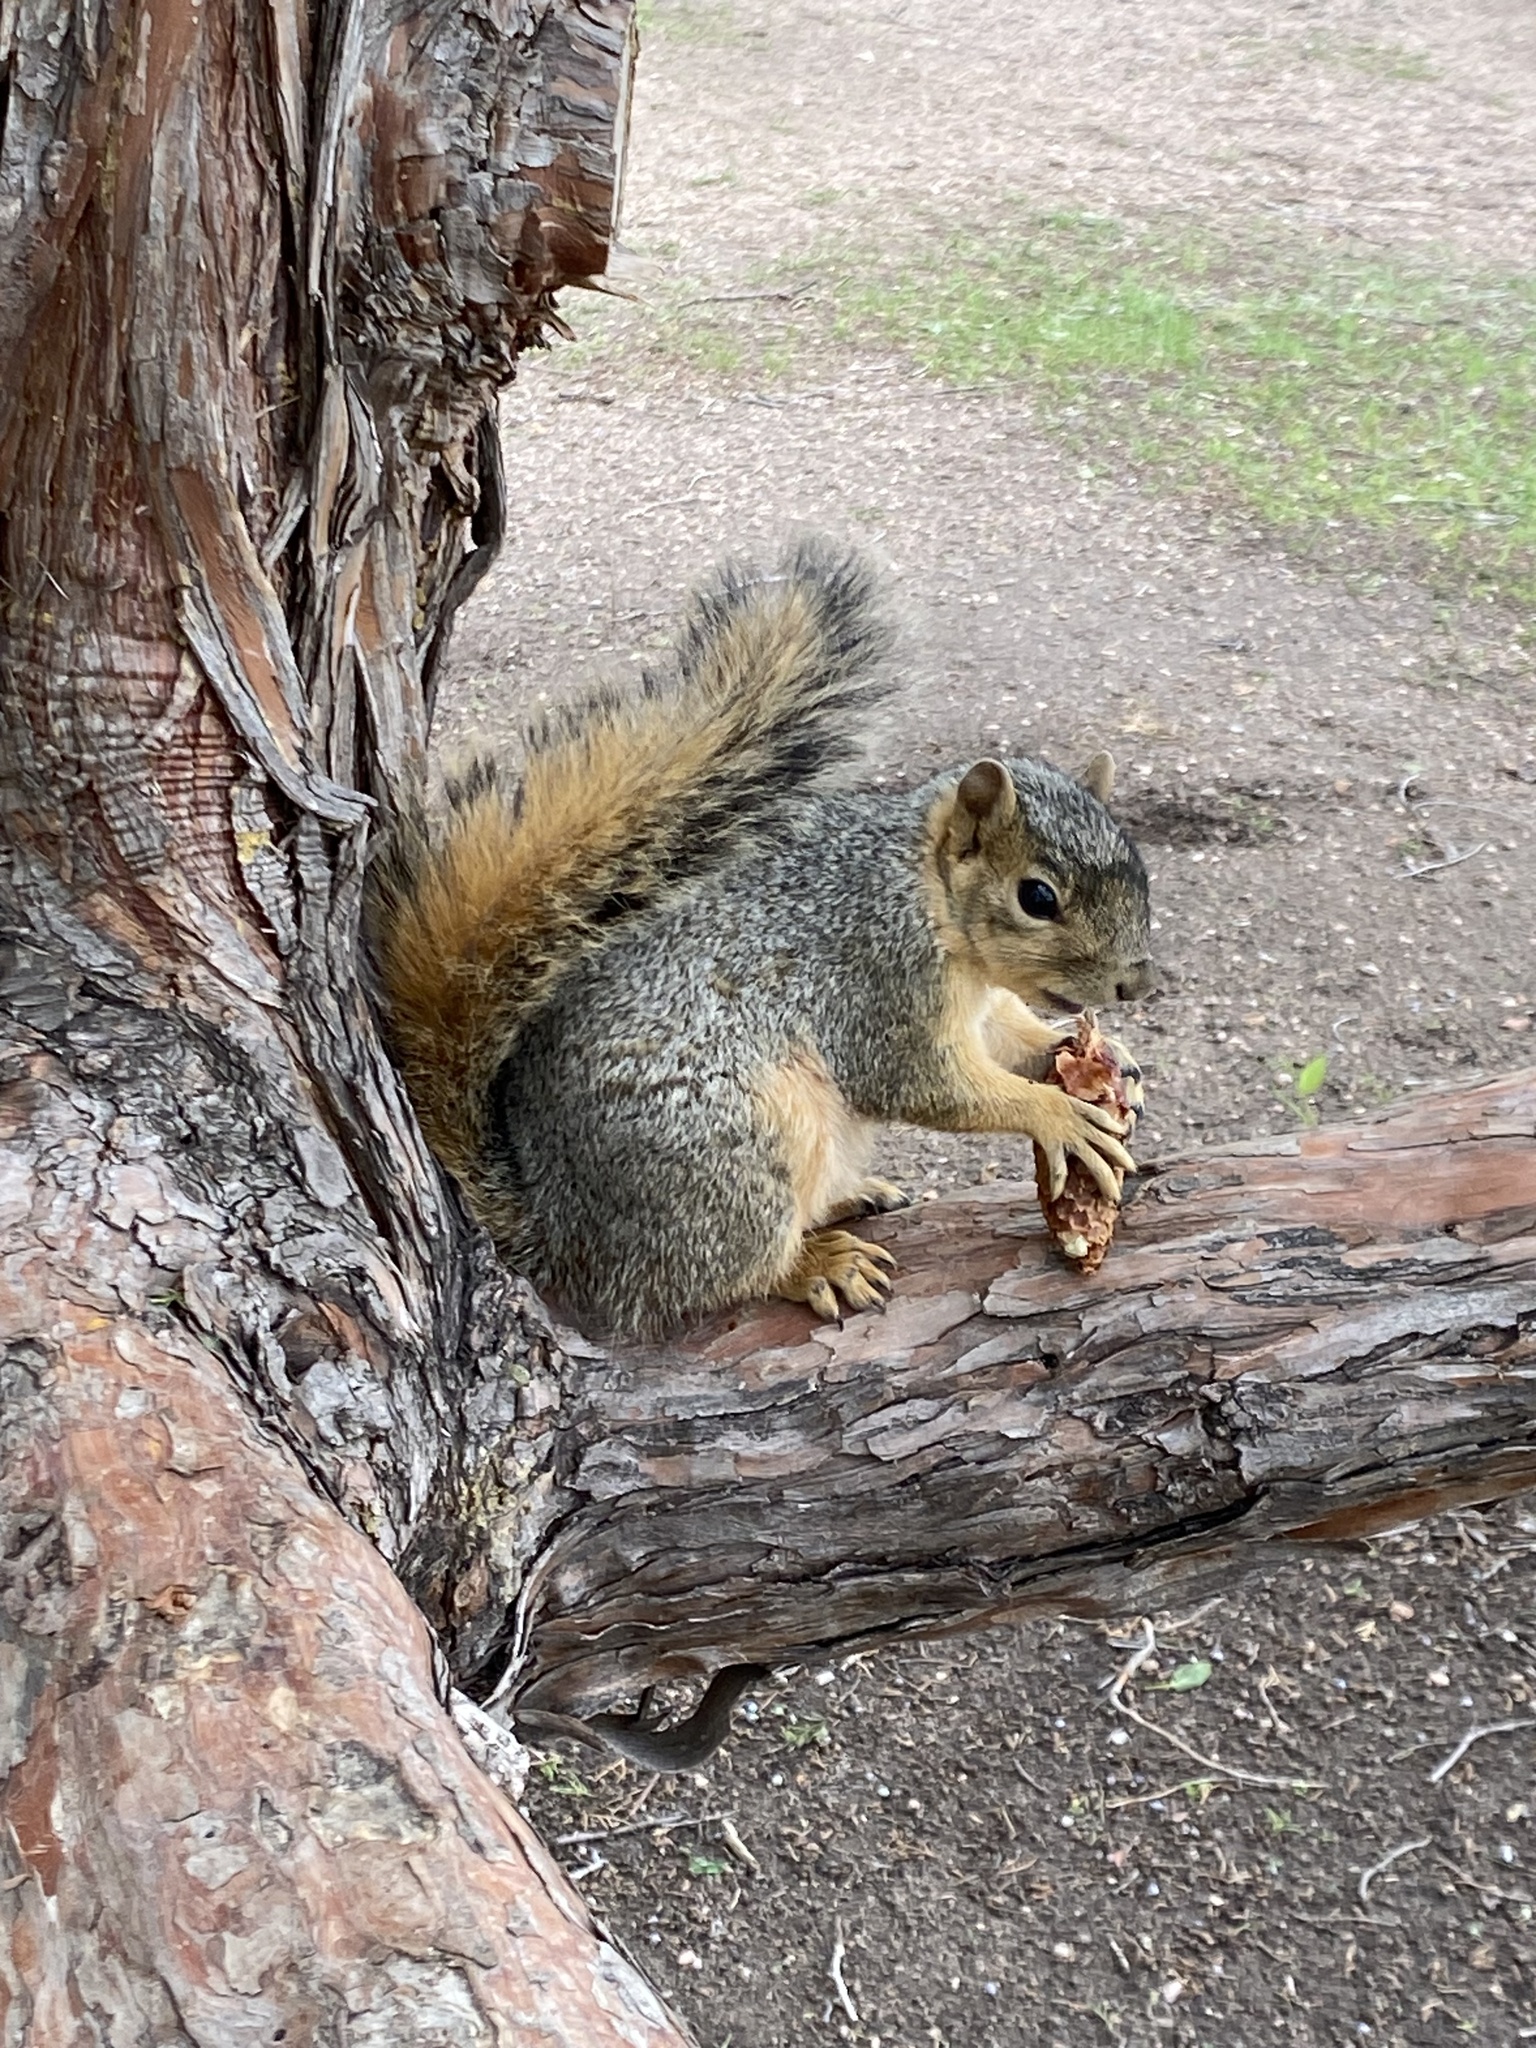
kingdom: Animalia
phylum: Chordata
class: Mammalia
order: Rodentia
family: Sciuridae
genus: Sciurus
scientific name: Sciurus niger
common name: Fox squirrel
